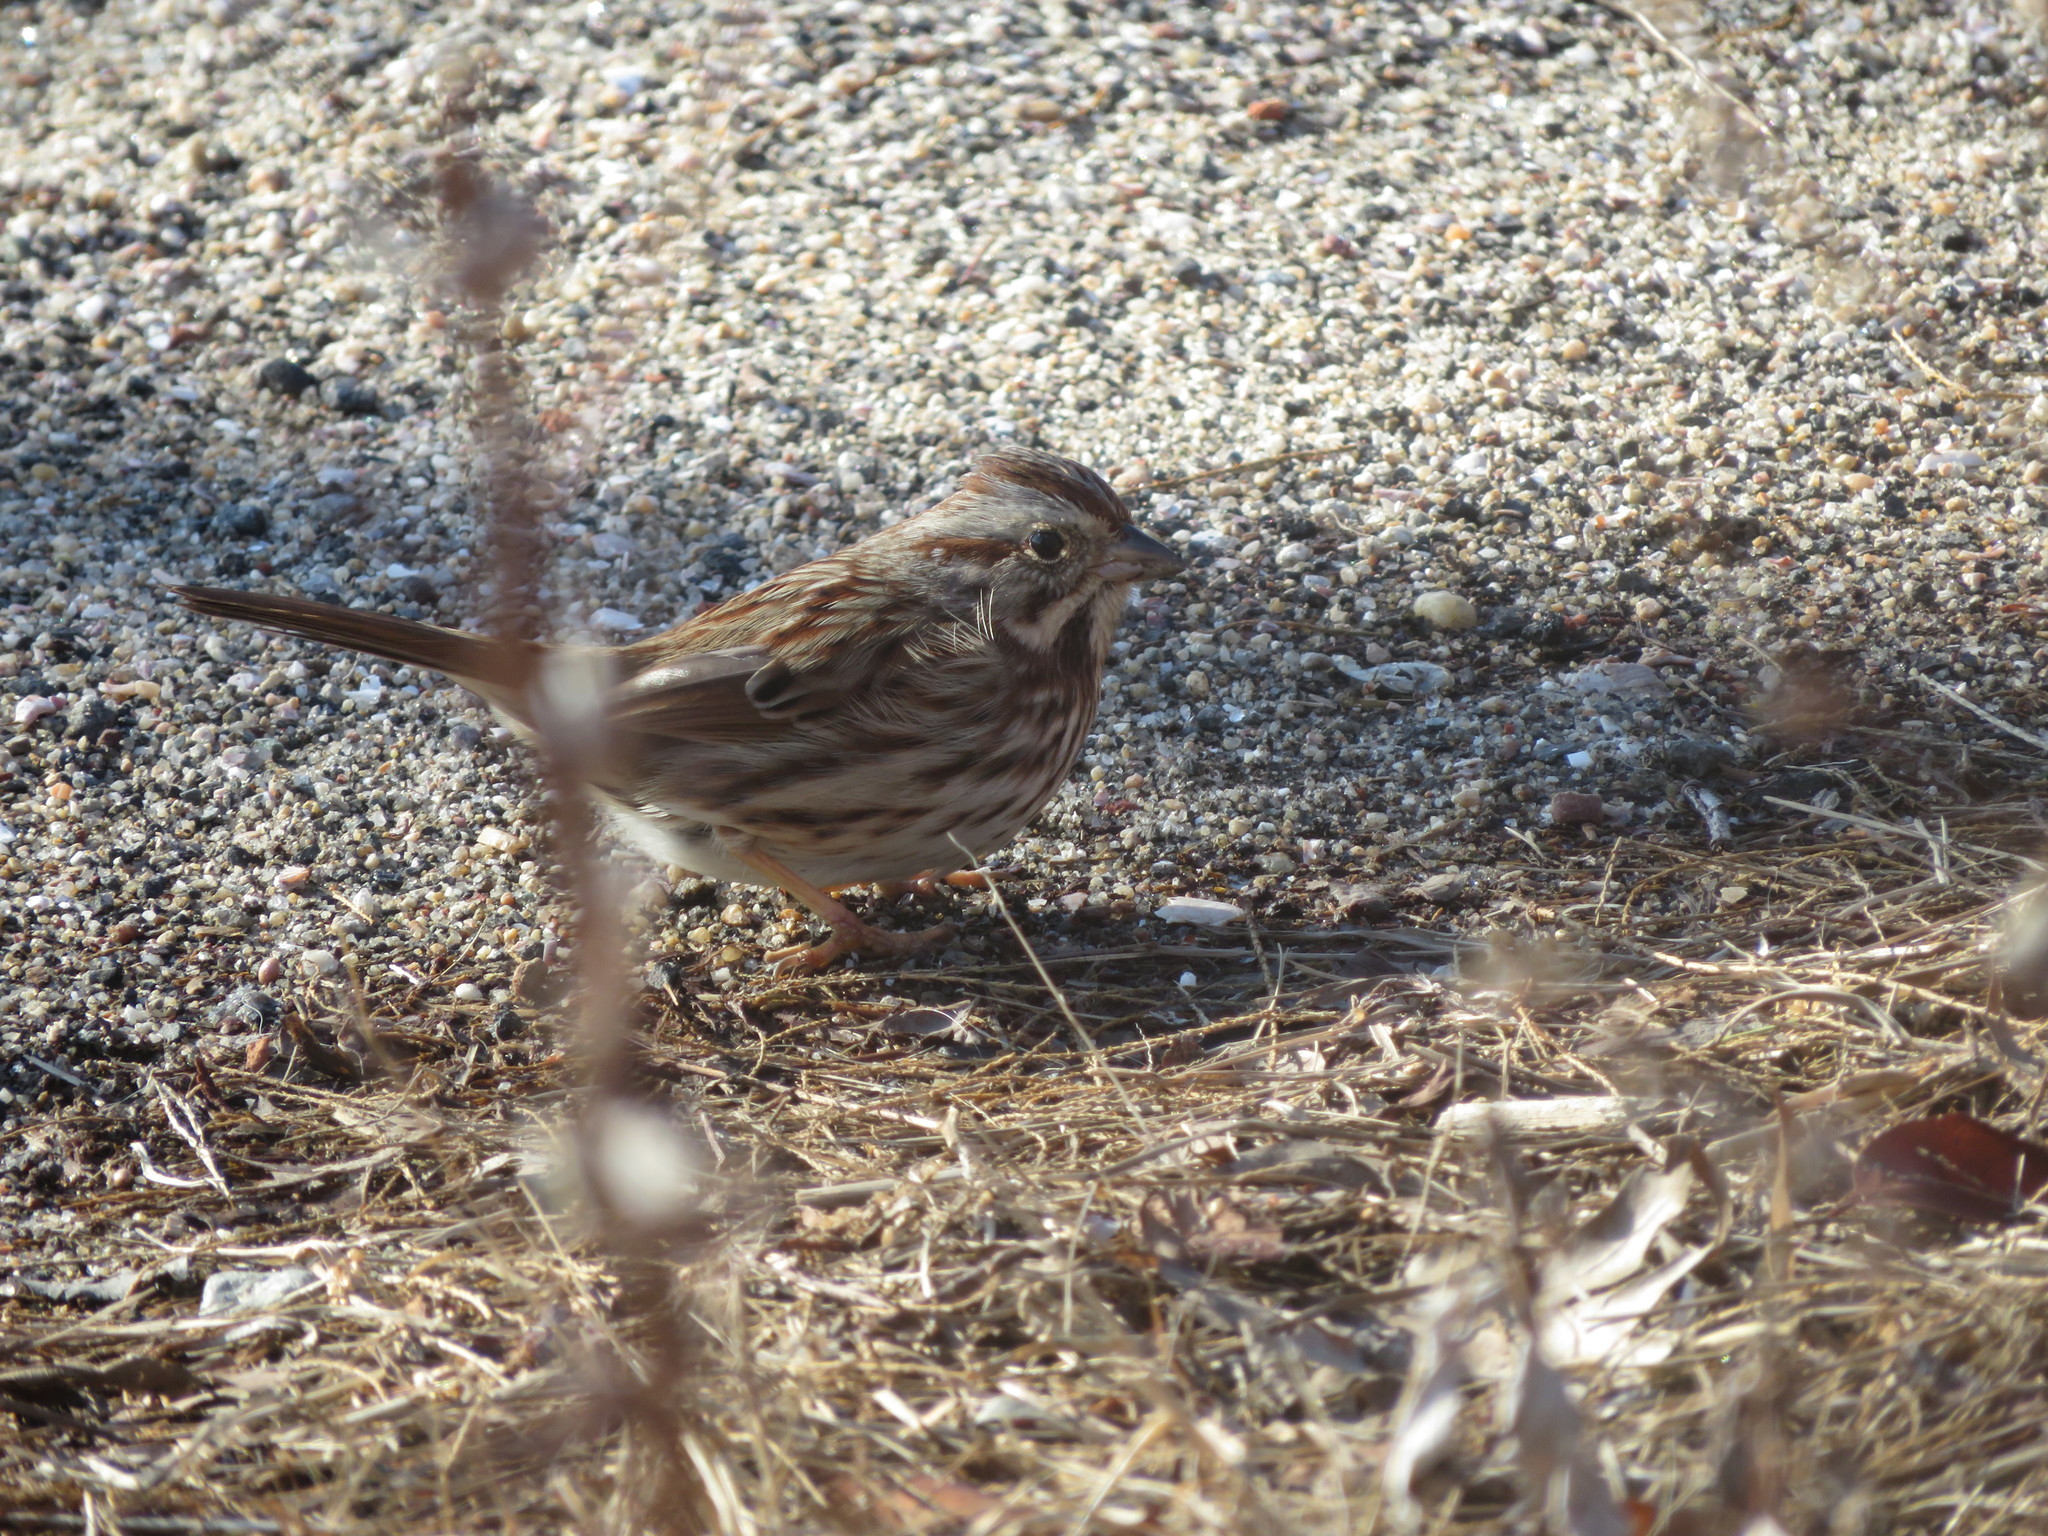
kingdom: Animalia
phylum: Chordata
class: Aves
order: Passeriformes
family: Passerellidae
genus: Melospiza
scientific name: Melospiza melodia
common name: Song sparrow
